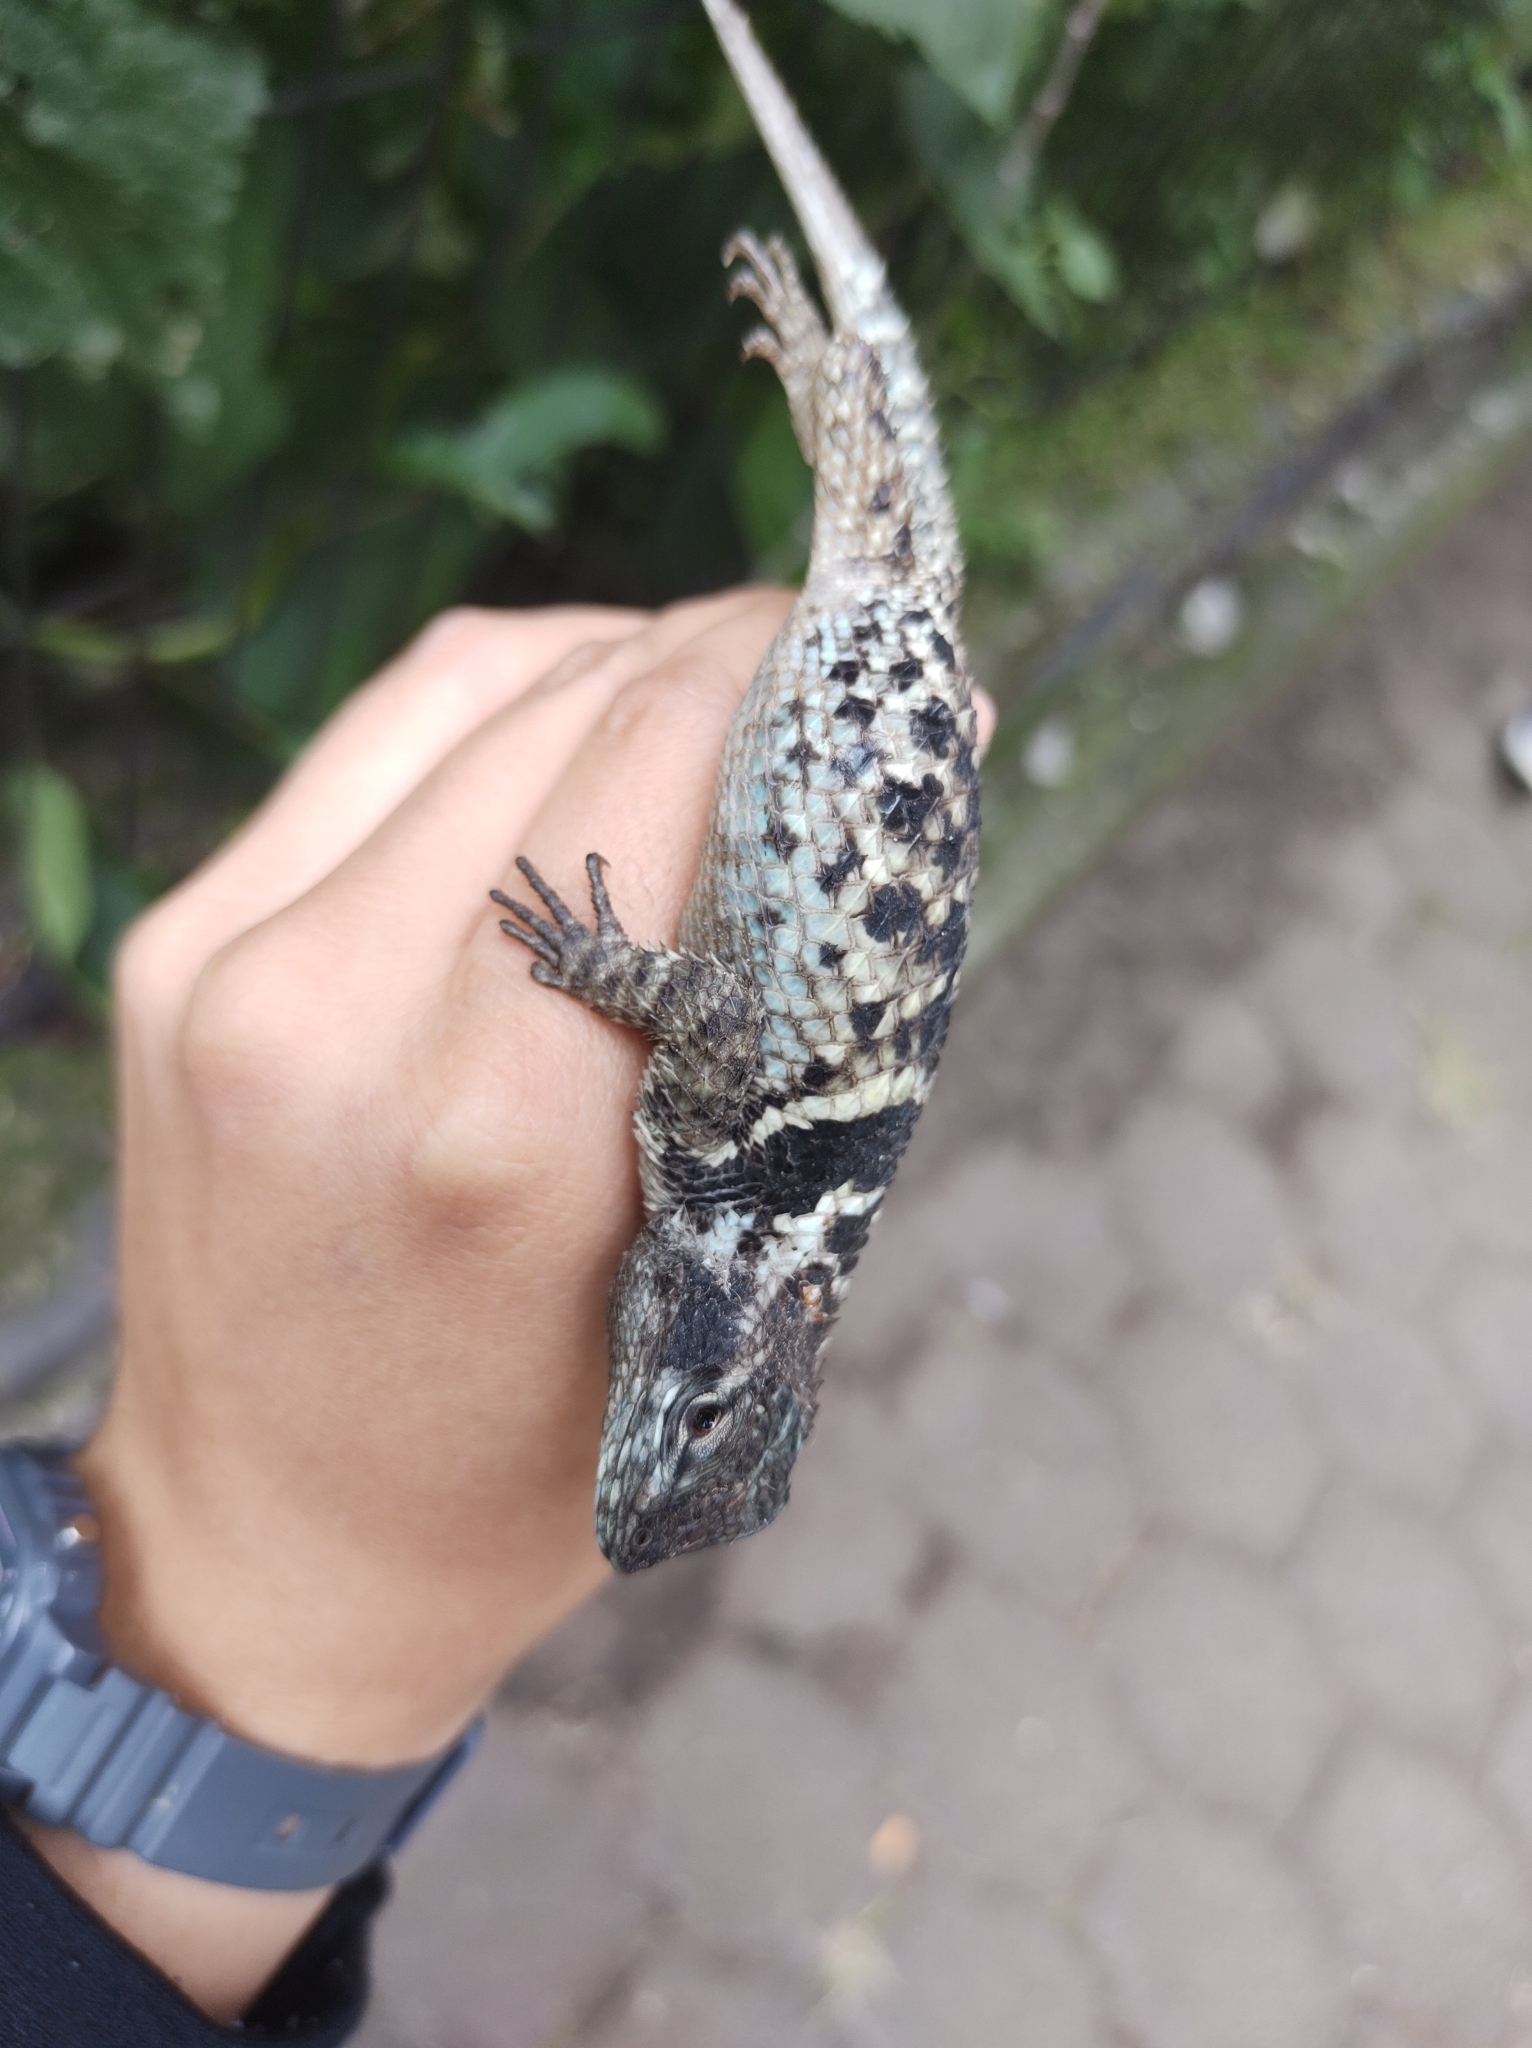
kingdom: Animalia
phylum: Chordata
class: Squamata
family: Phrynosomatidae
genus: Sceloporus
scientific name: Sceloporus torquatus
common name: Central plateau torquate lizard [melanogaster]
